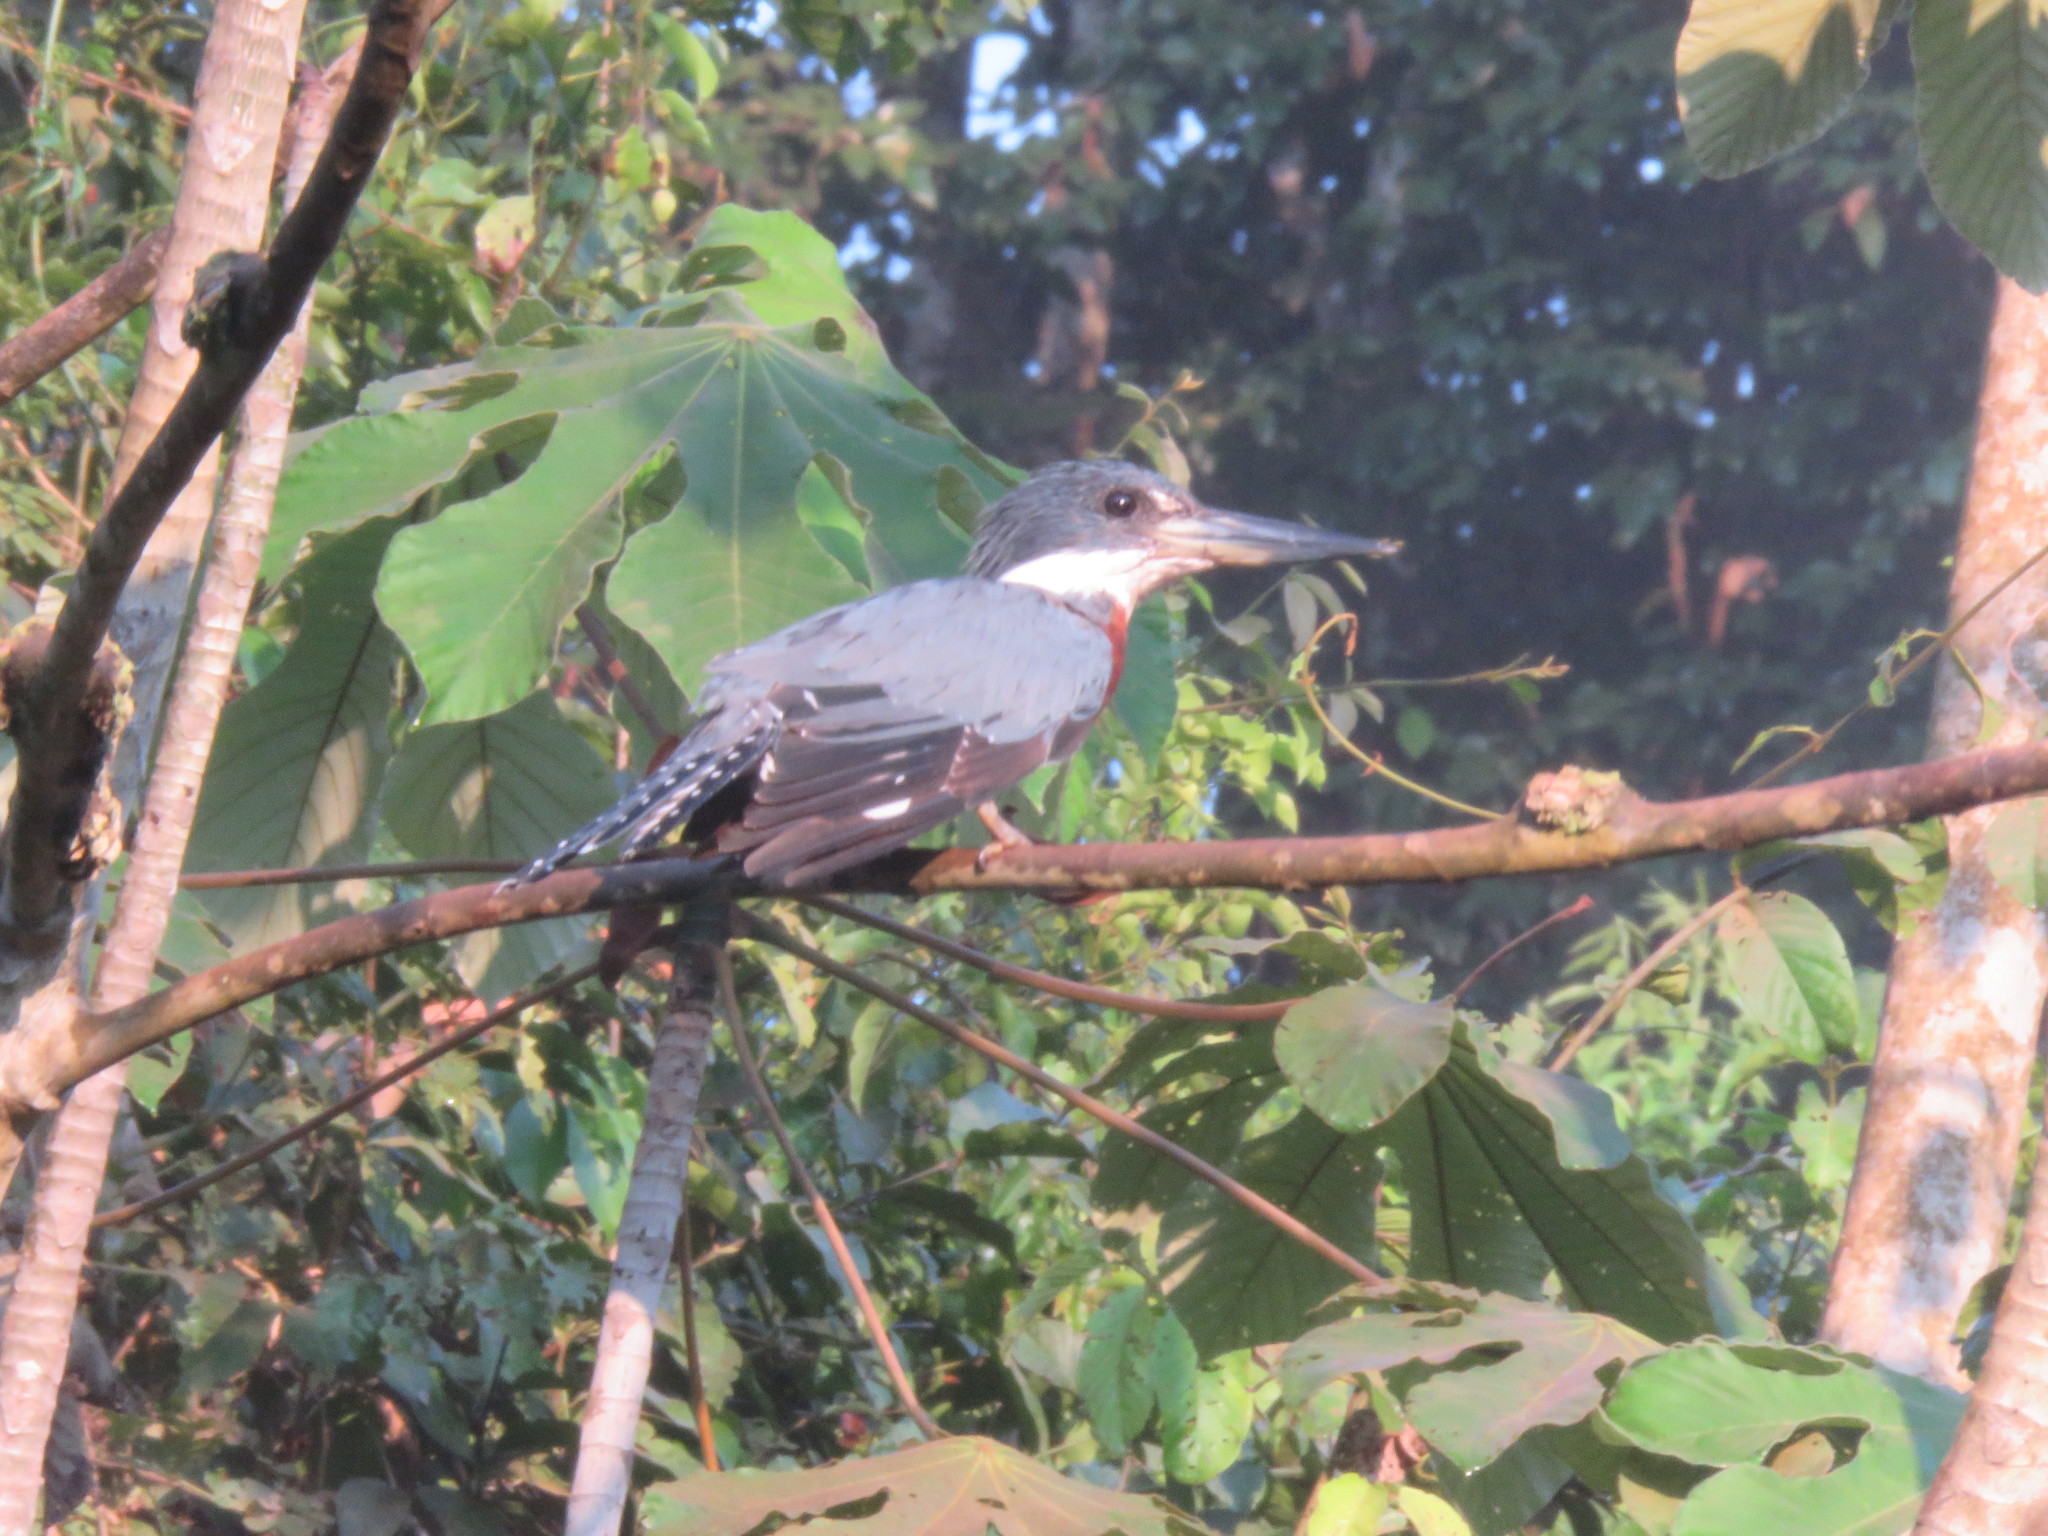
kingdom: Animalia
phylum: Chordata
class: Aves
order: Coraciiformes
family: Alcedinidae
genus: Megaceryle
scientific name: Megaceryle torquata
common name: Ringed kingfisher
